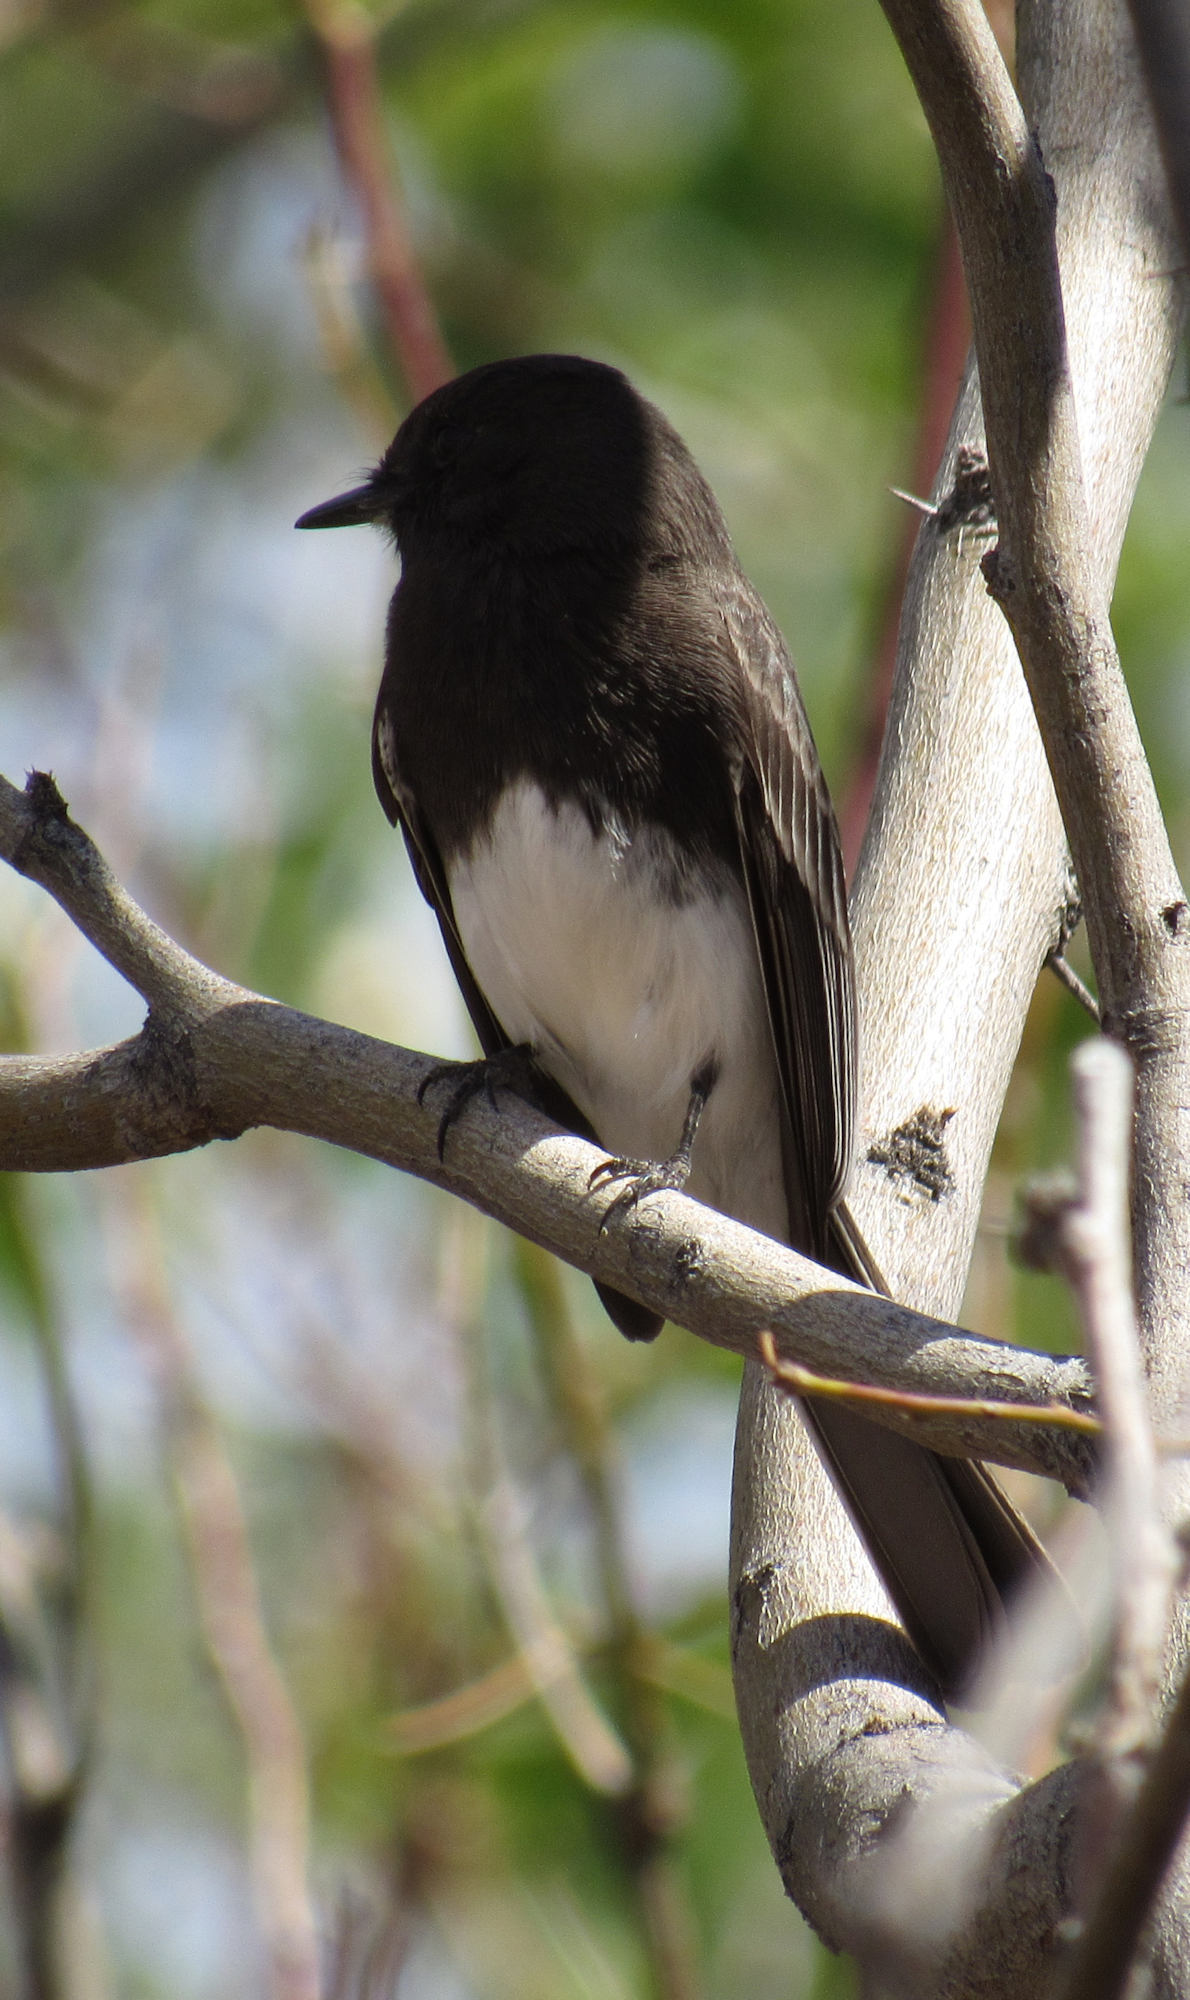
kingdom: Animalia
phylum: Chordata
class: Aves
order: Passeriformes
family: Tyrannidae
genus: Sayornis
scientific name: Sayornis nigricans
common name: Black phoebe
